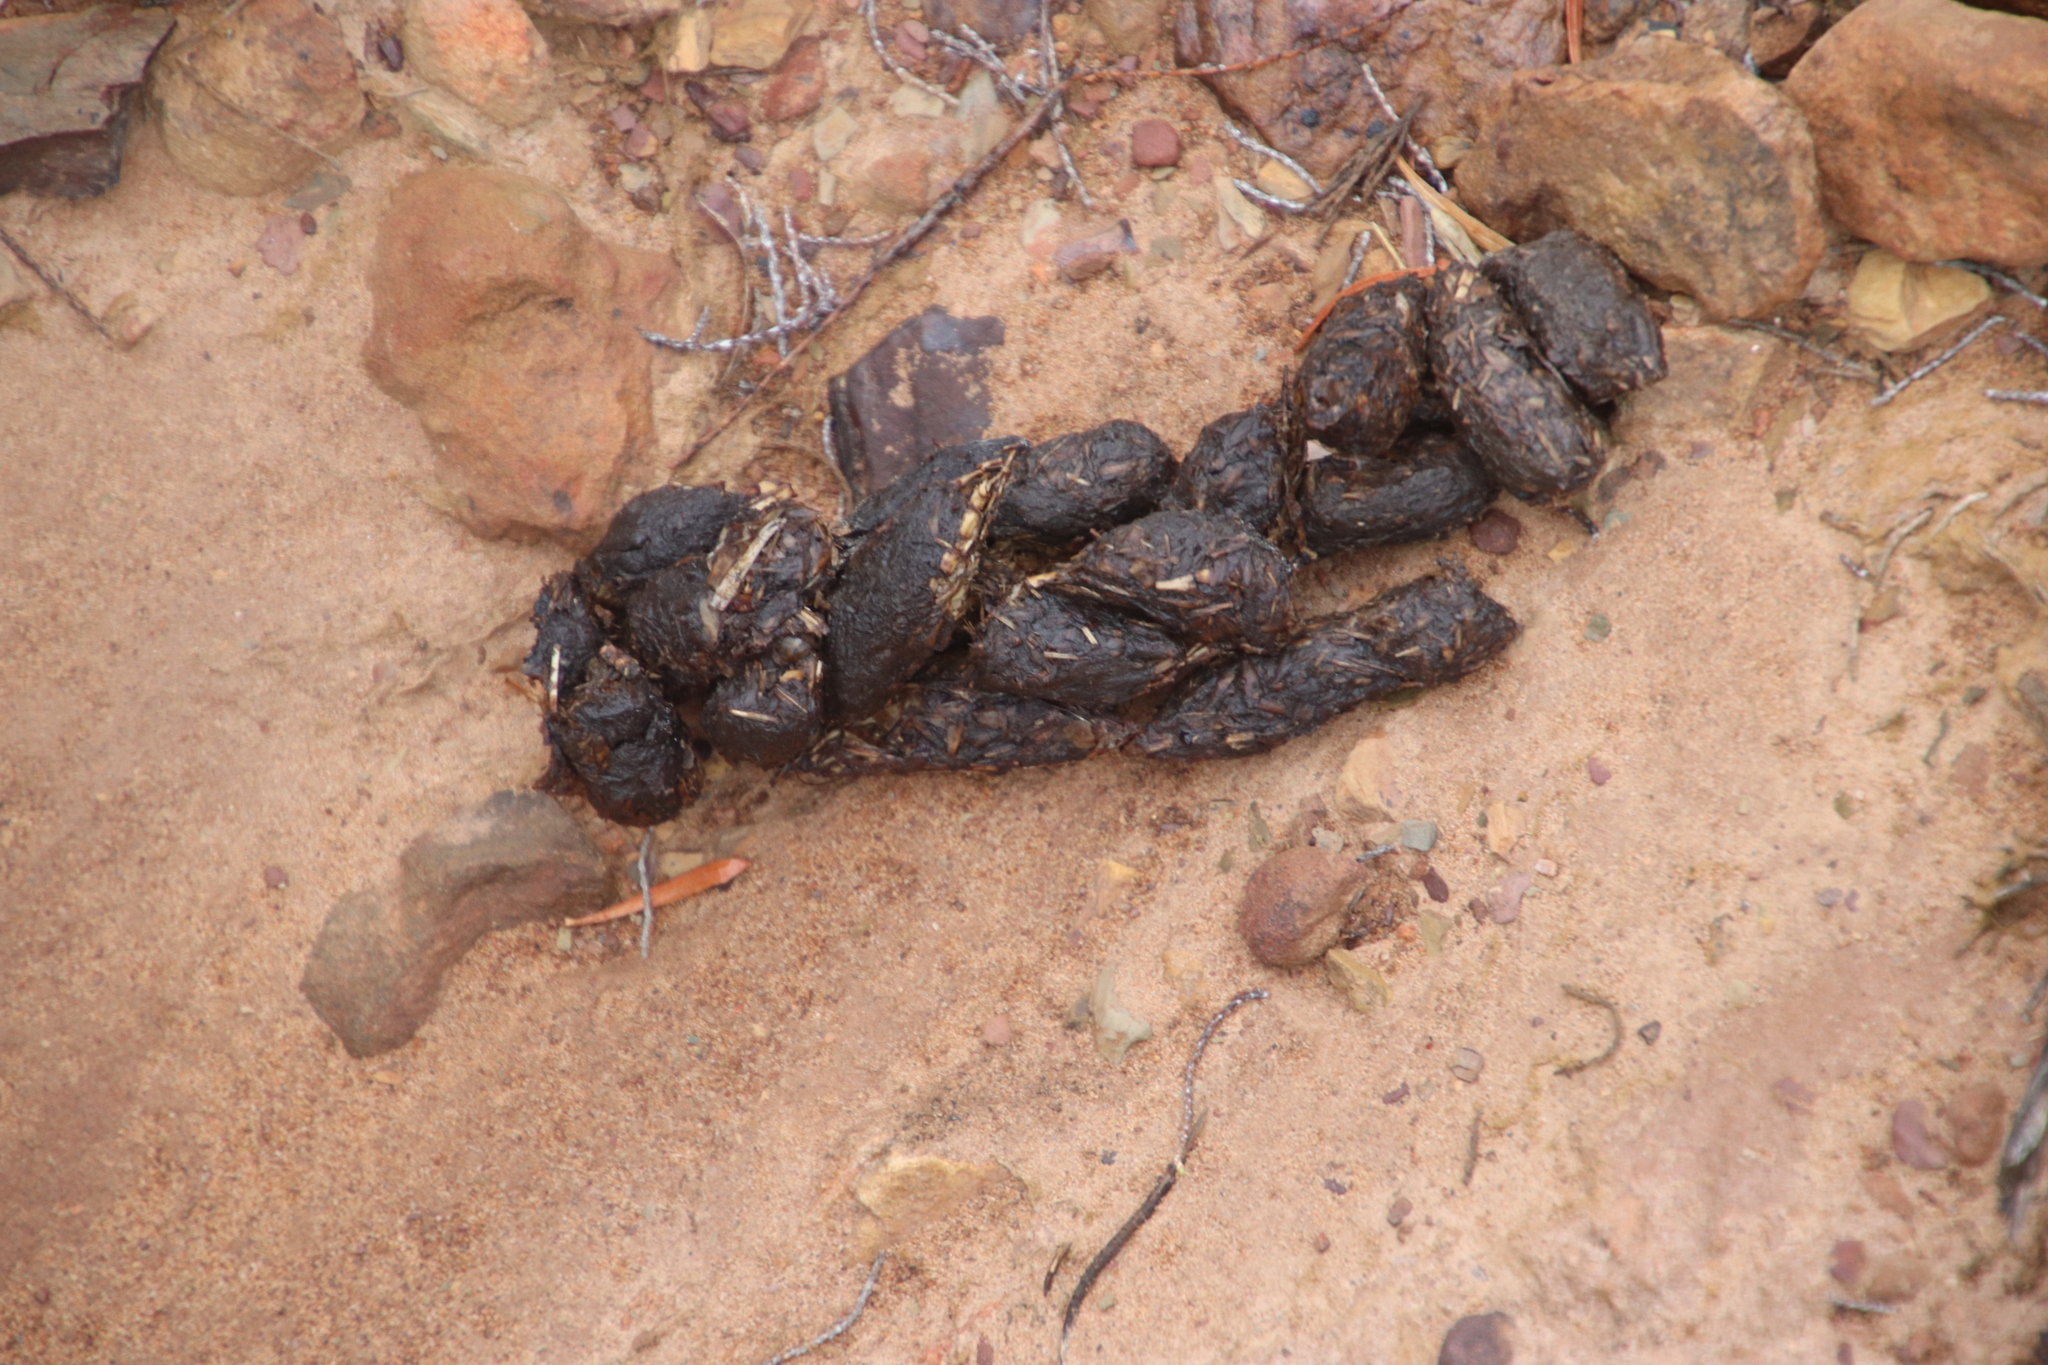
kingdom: Animalia
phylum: Chordata
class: Mammalia
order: Rodentia
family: Hystricidae
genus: Hystrix
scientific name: Hystrix africaeaustralis
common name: Cape porcupine
